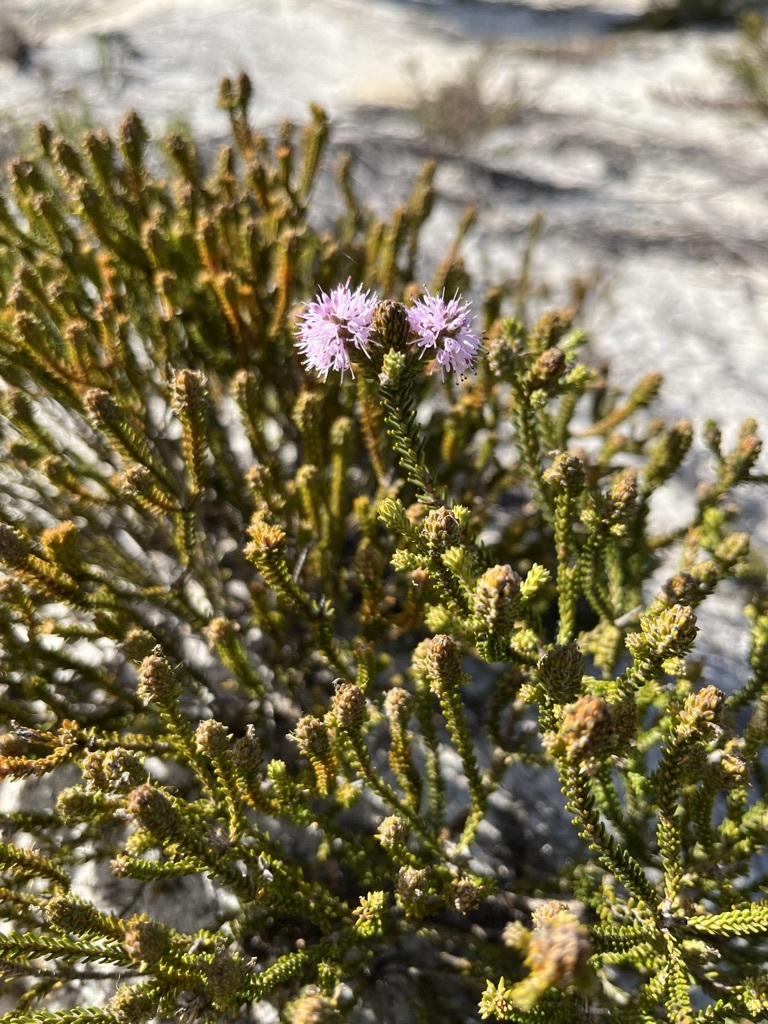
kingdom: Plantae
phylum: Tracheophyta
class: Magnoliopsida
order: Lamiales
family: Stilbaceae
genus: Stilbe
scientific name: Stilbe ericoides
